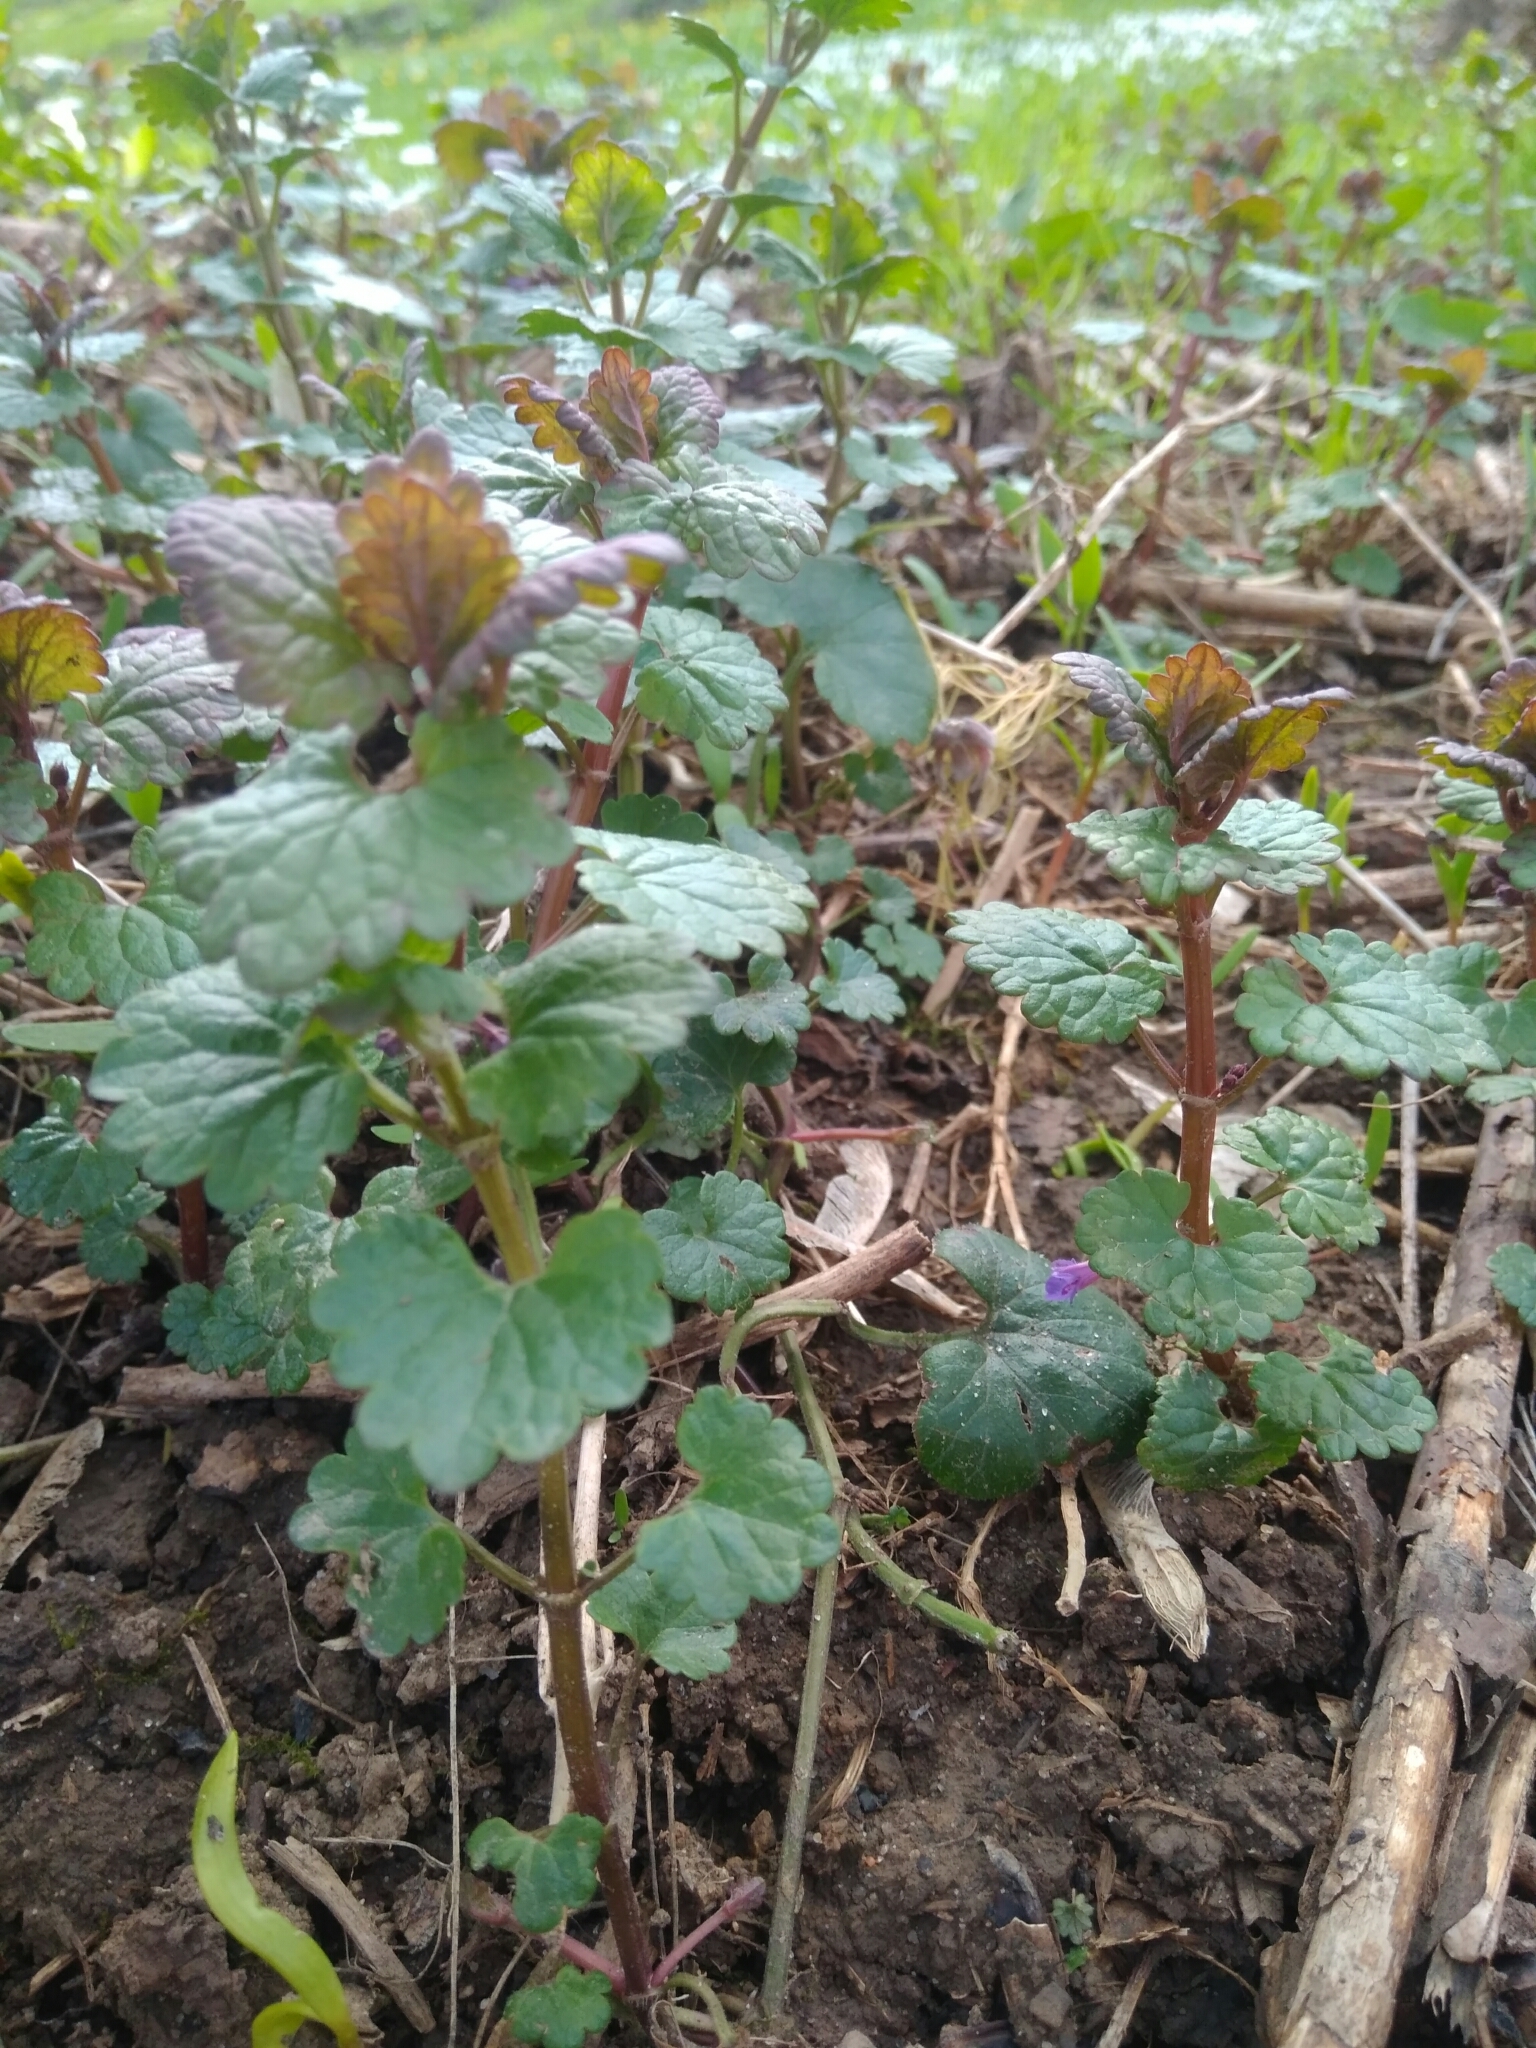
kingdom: Plantae
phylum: Tracheophyta
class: Magnoliopsida
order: Lamiales
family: Lamiaceae
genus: Glechoma
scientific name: Glechoma hederacea
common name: Ground ivy
